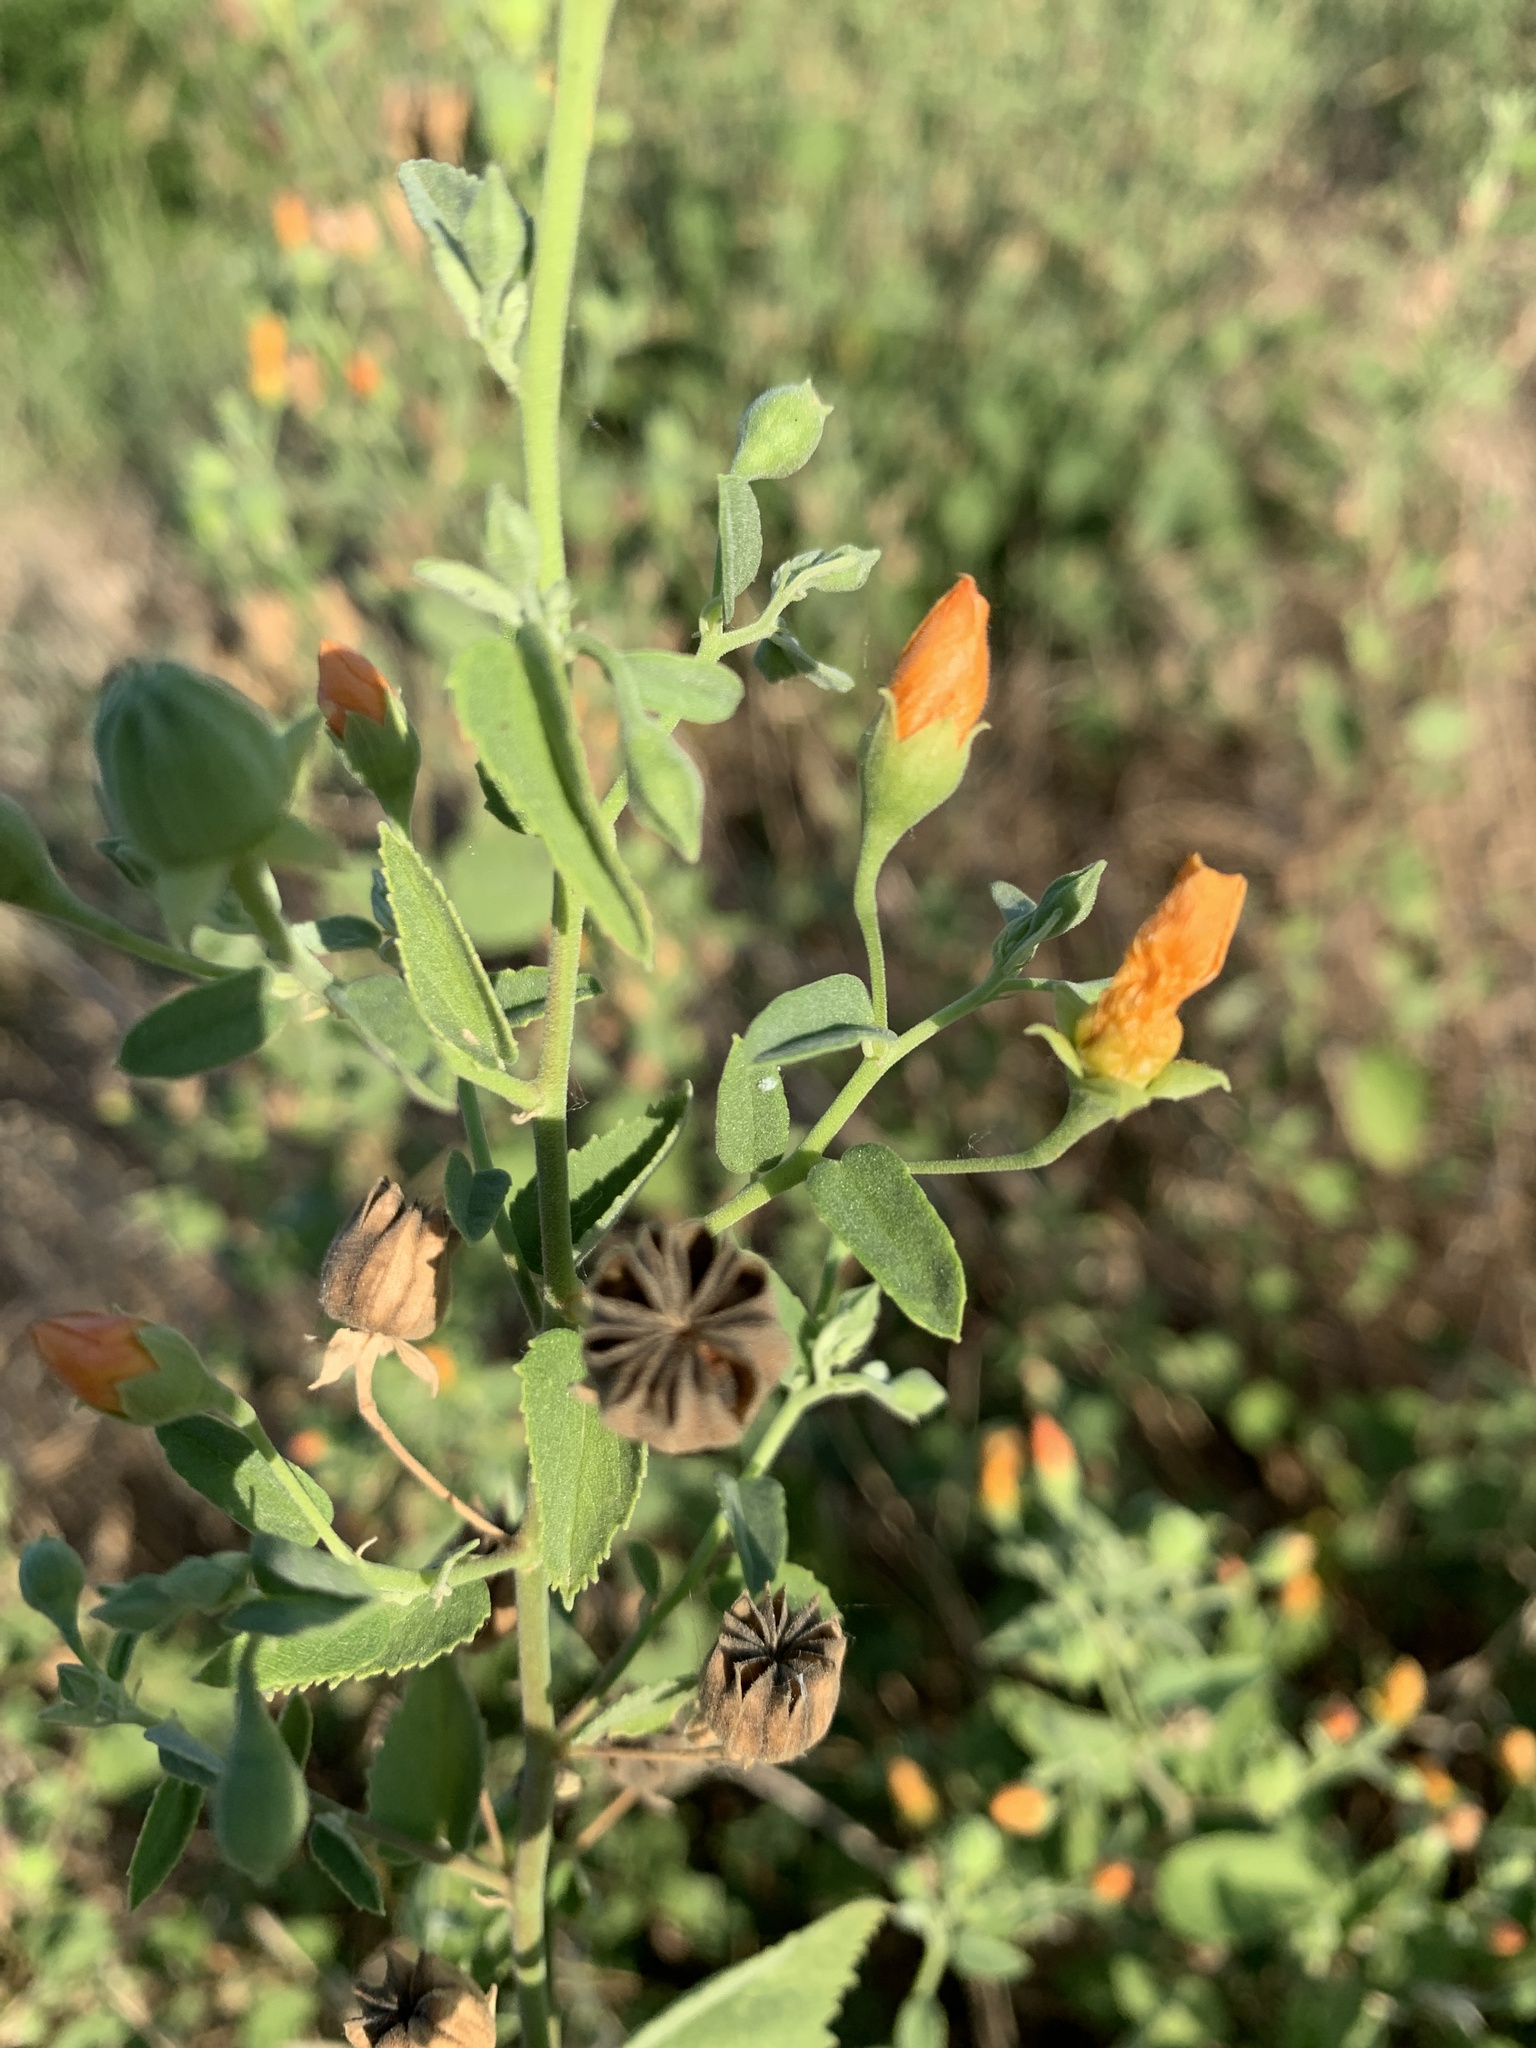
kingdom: Plantae
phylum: Tracheophyta
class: Magnoliopsida
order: Malvales
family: Malvaceae
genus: Abutilon
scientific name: Abutilon fruticosum
